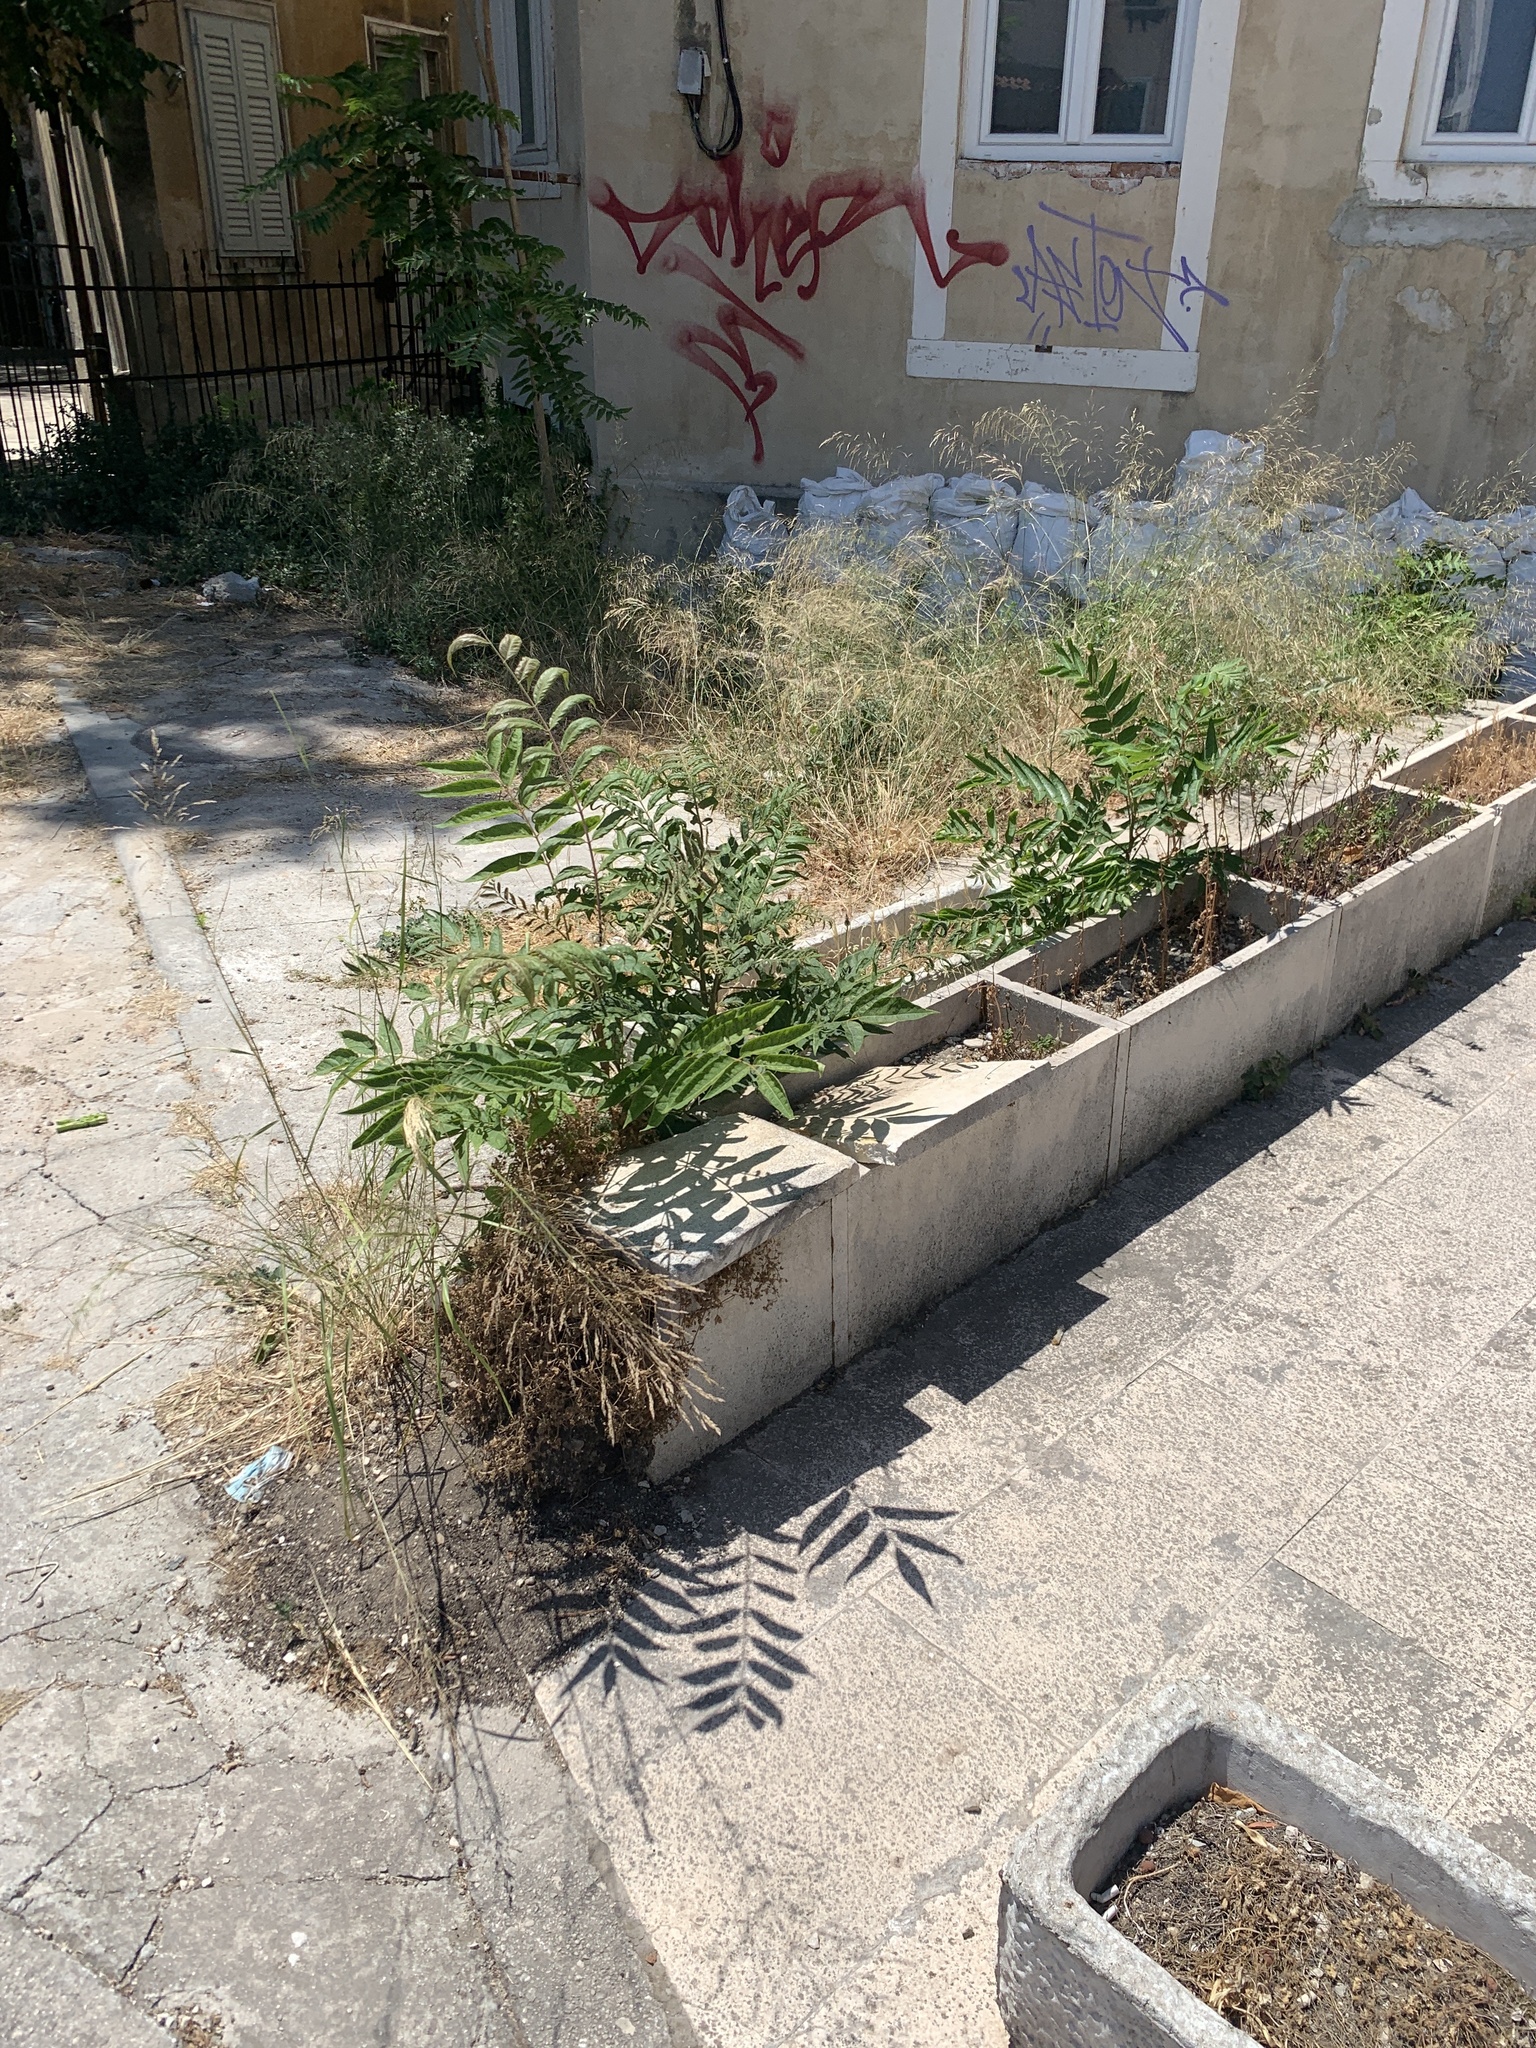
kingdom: Plantae
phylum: Tracheophyta
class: Magnoliopsida
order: Sapindales
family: Simaroubaceae
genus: Ailanthus
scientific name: Ailanthus altissima
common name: Tree-of-heaven
